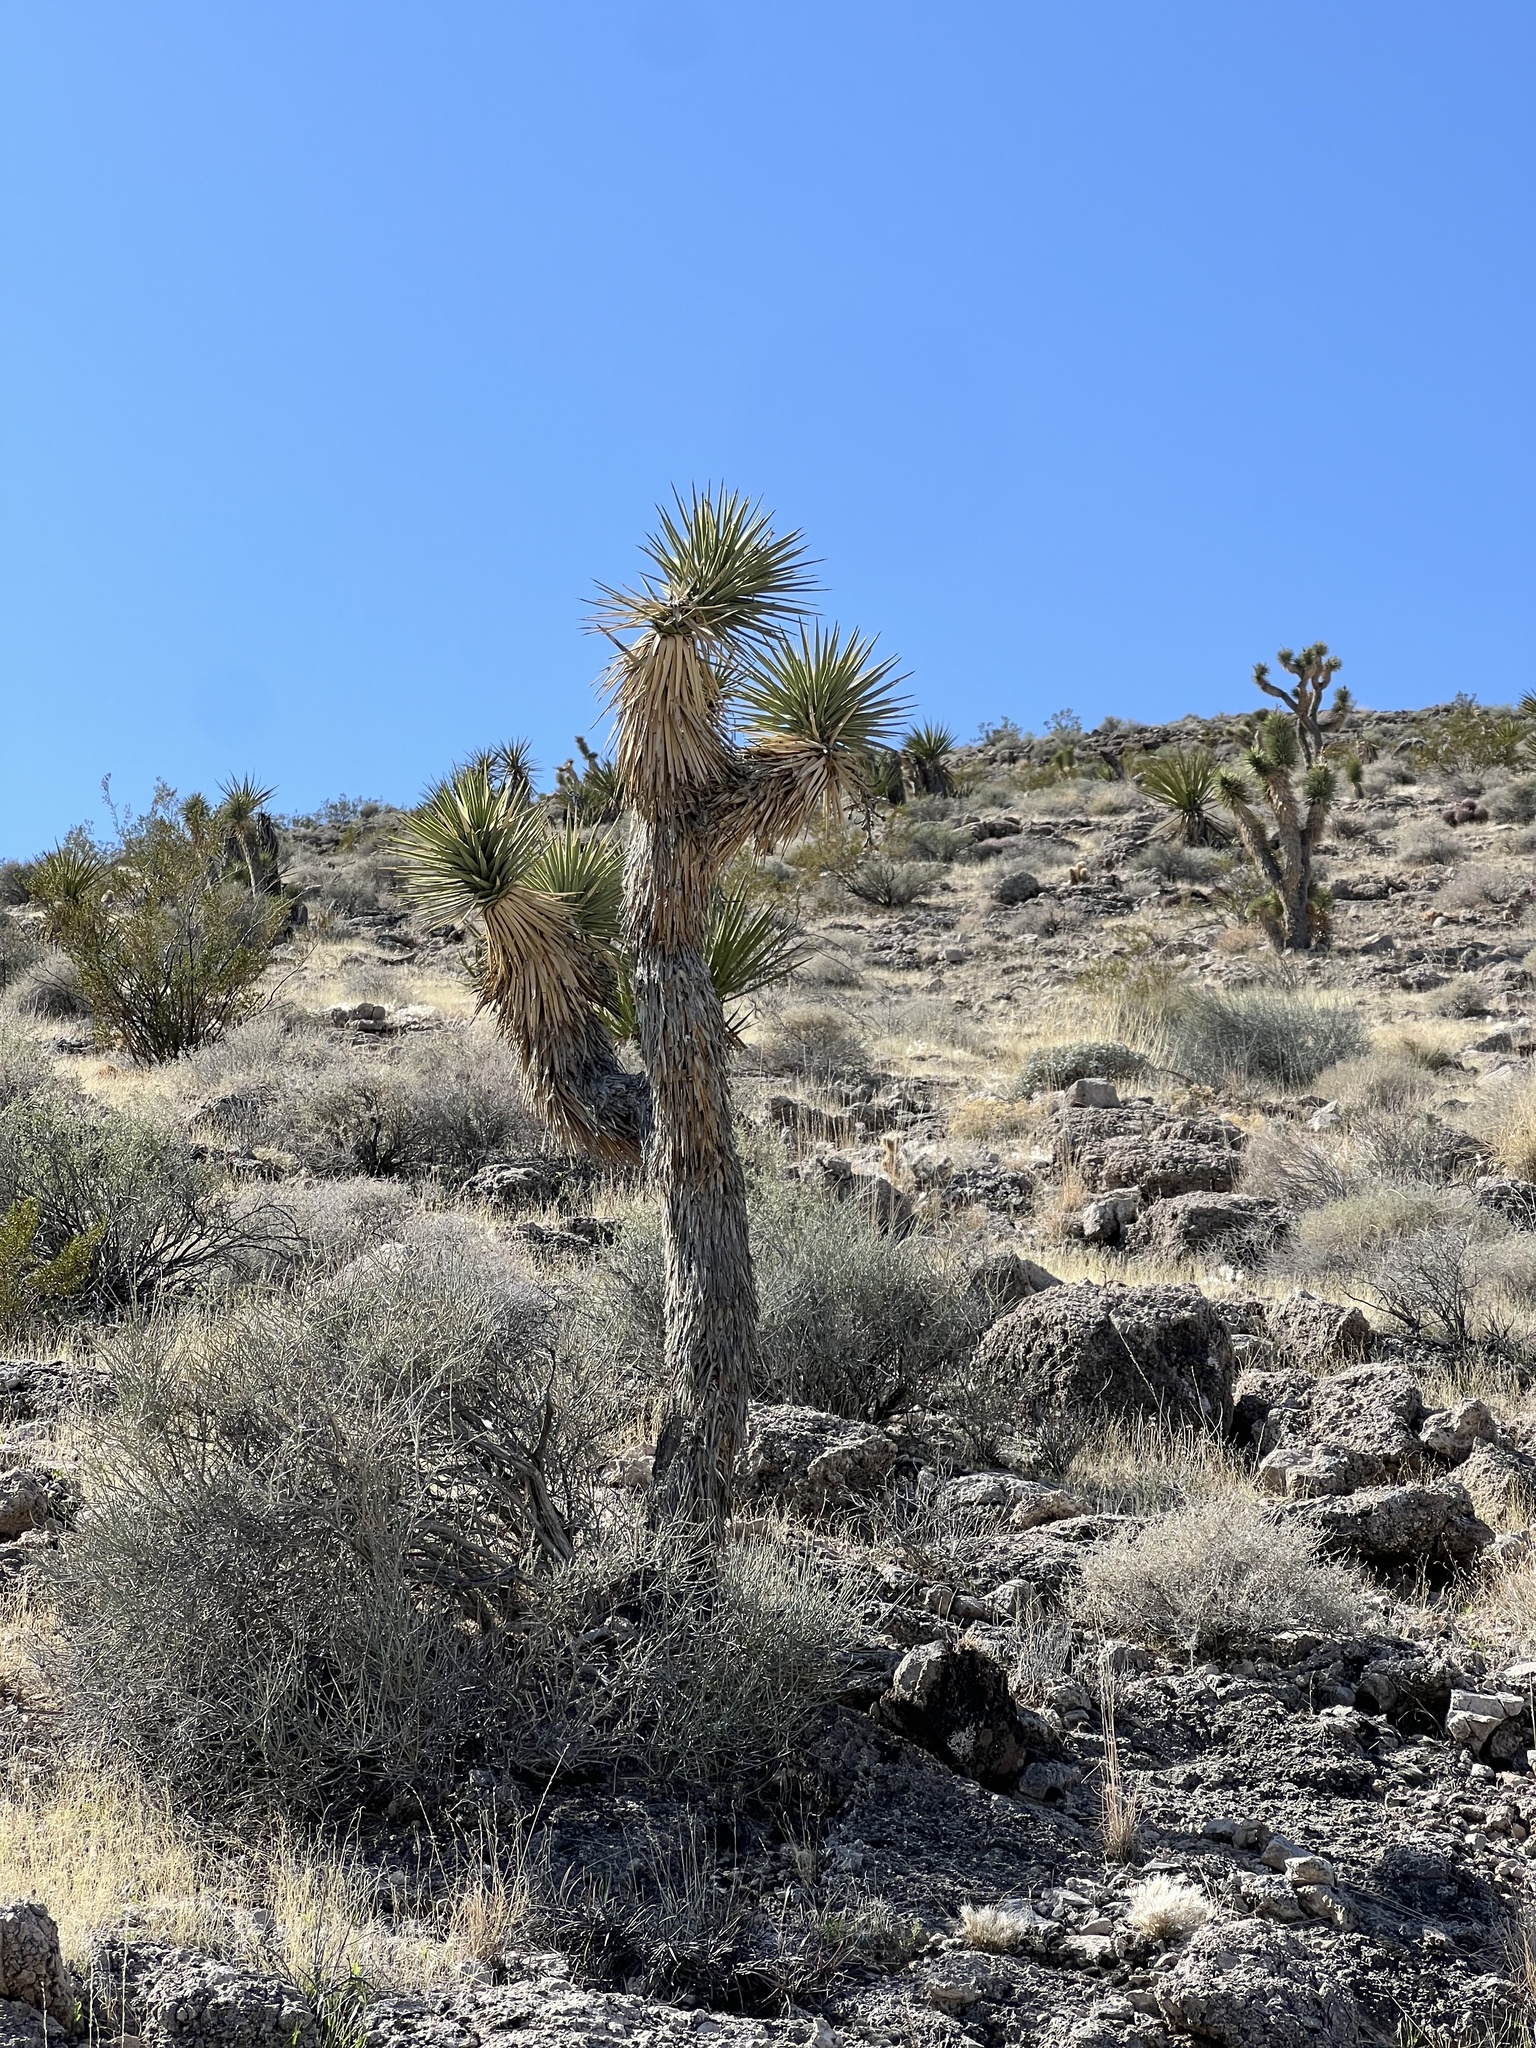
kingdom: Plantae
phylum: Tracheophyta
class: Liliopsida
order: Asparagales
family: Asparagaceae
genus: Yucca
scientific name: Yucca brevifolia
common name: Joshua tree
